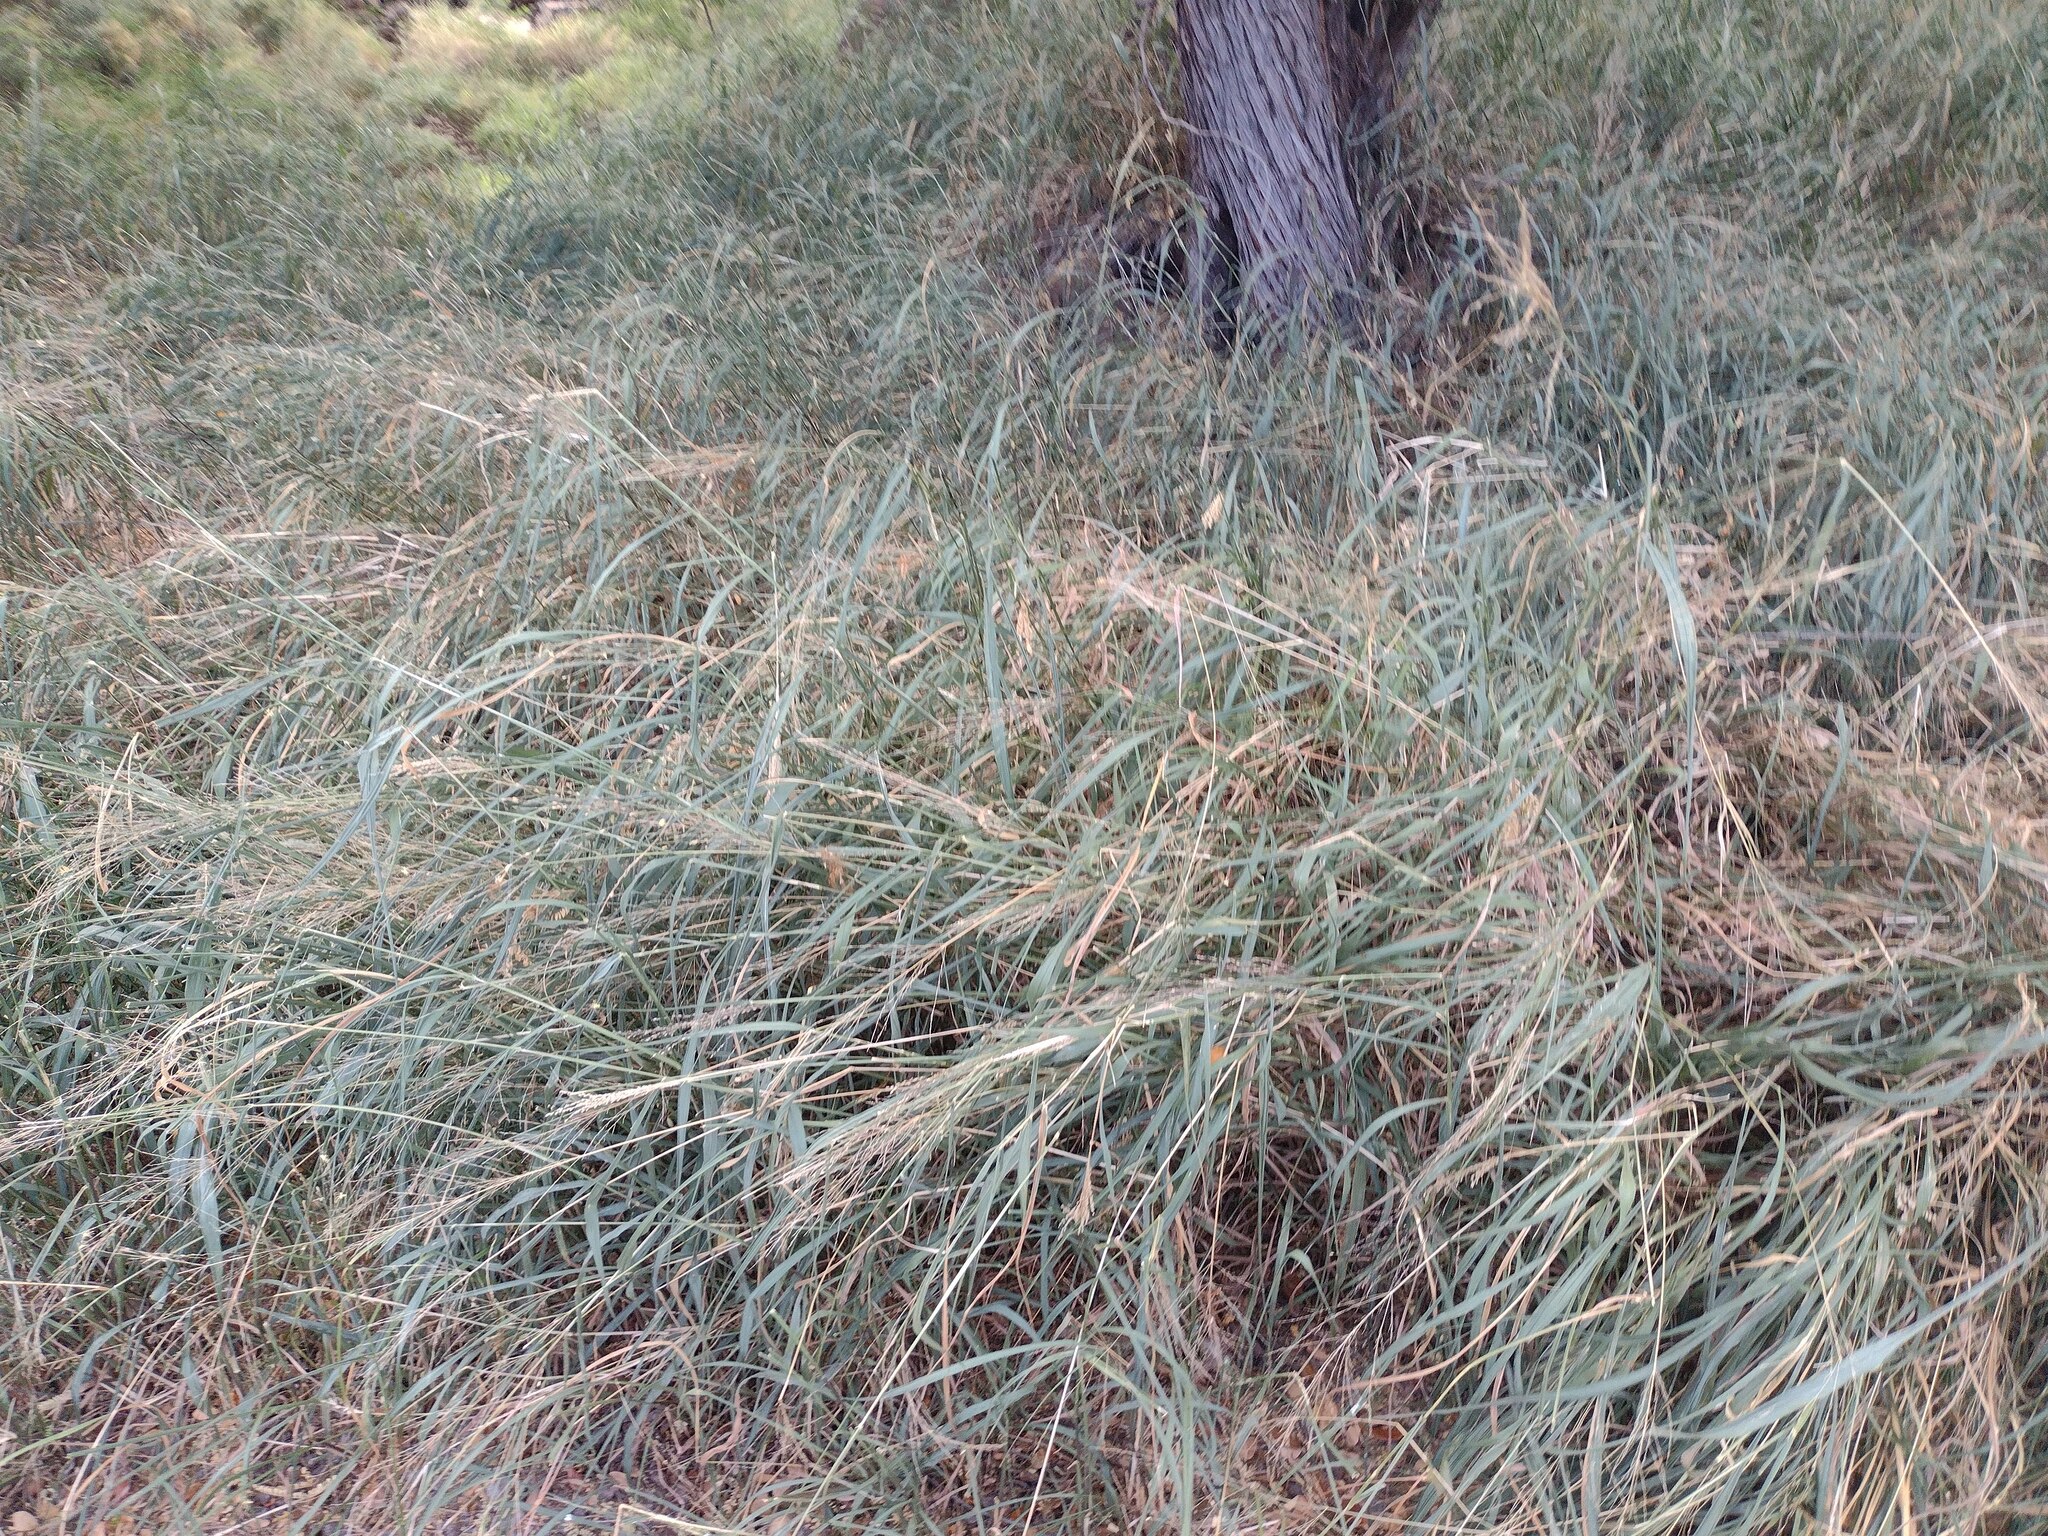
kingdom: Plantae
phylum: Tracheophyta
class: Liliopsida
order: Poales
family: Poaceae
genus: Megathyrsus
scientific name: Megathyrsus maximus
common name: Guineagrass
